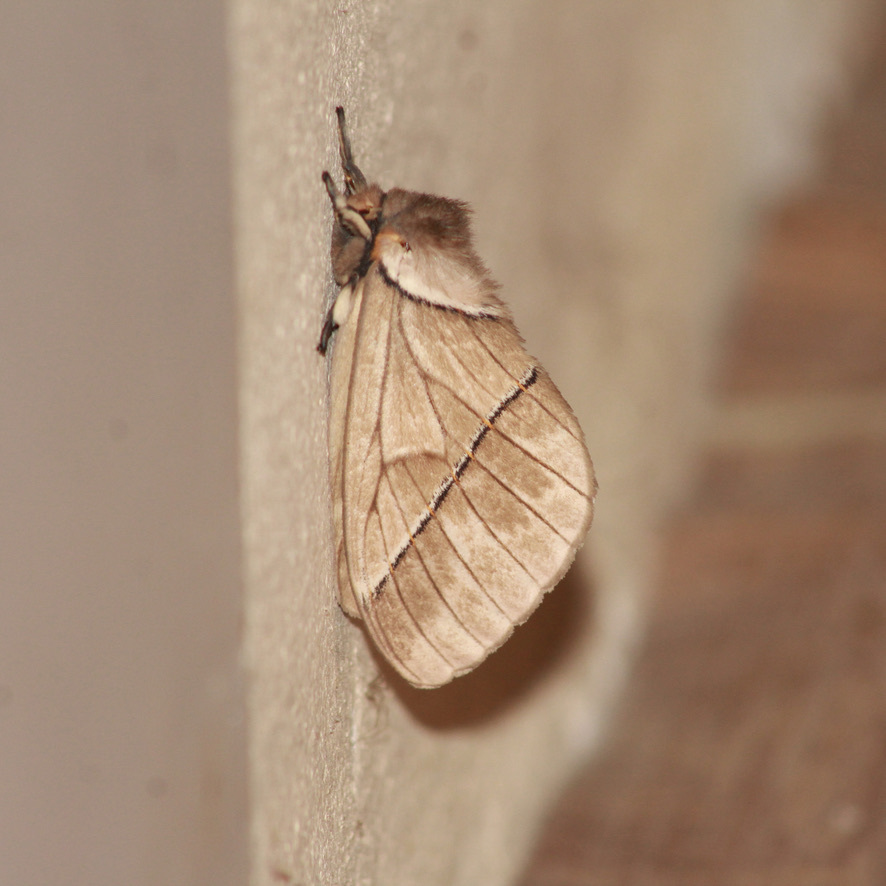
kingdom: Animalia
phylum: Arthropoda
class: Insecta
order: Lepidoptera
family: Saturniidae
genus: Pseudodirphia
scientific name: Pseudodirphia obliqua
